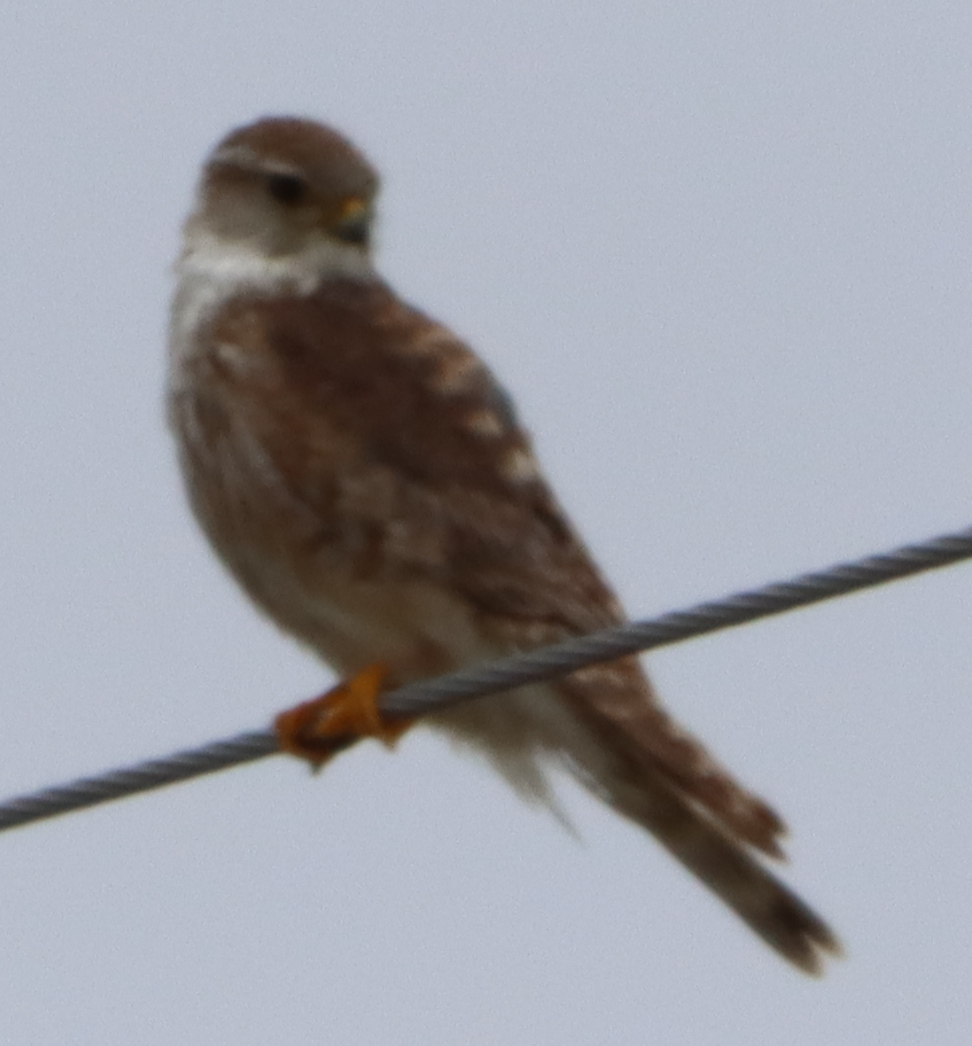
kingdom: Animalia
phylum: Chordata
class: Aves
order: Falconiformes
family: Falconidae
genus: Falco
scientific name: Falco columbarius
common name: Merlin
